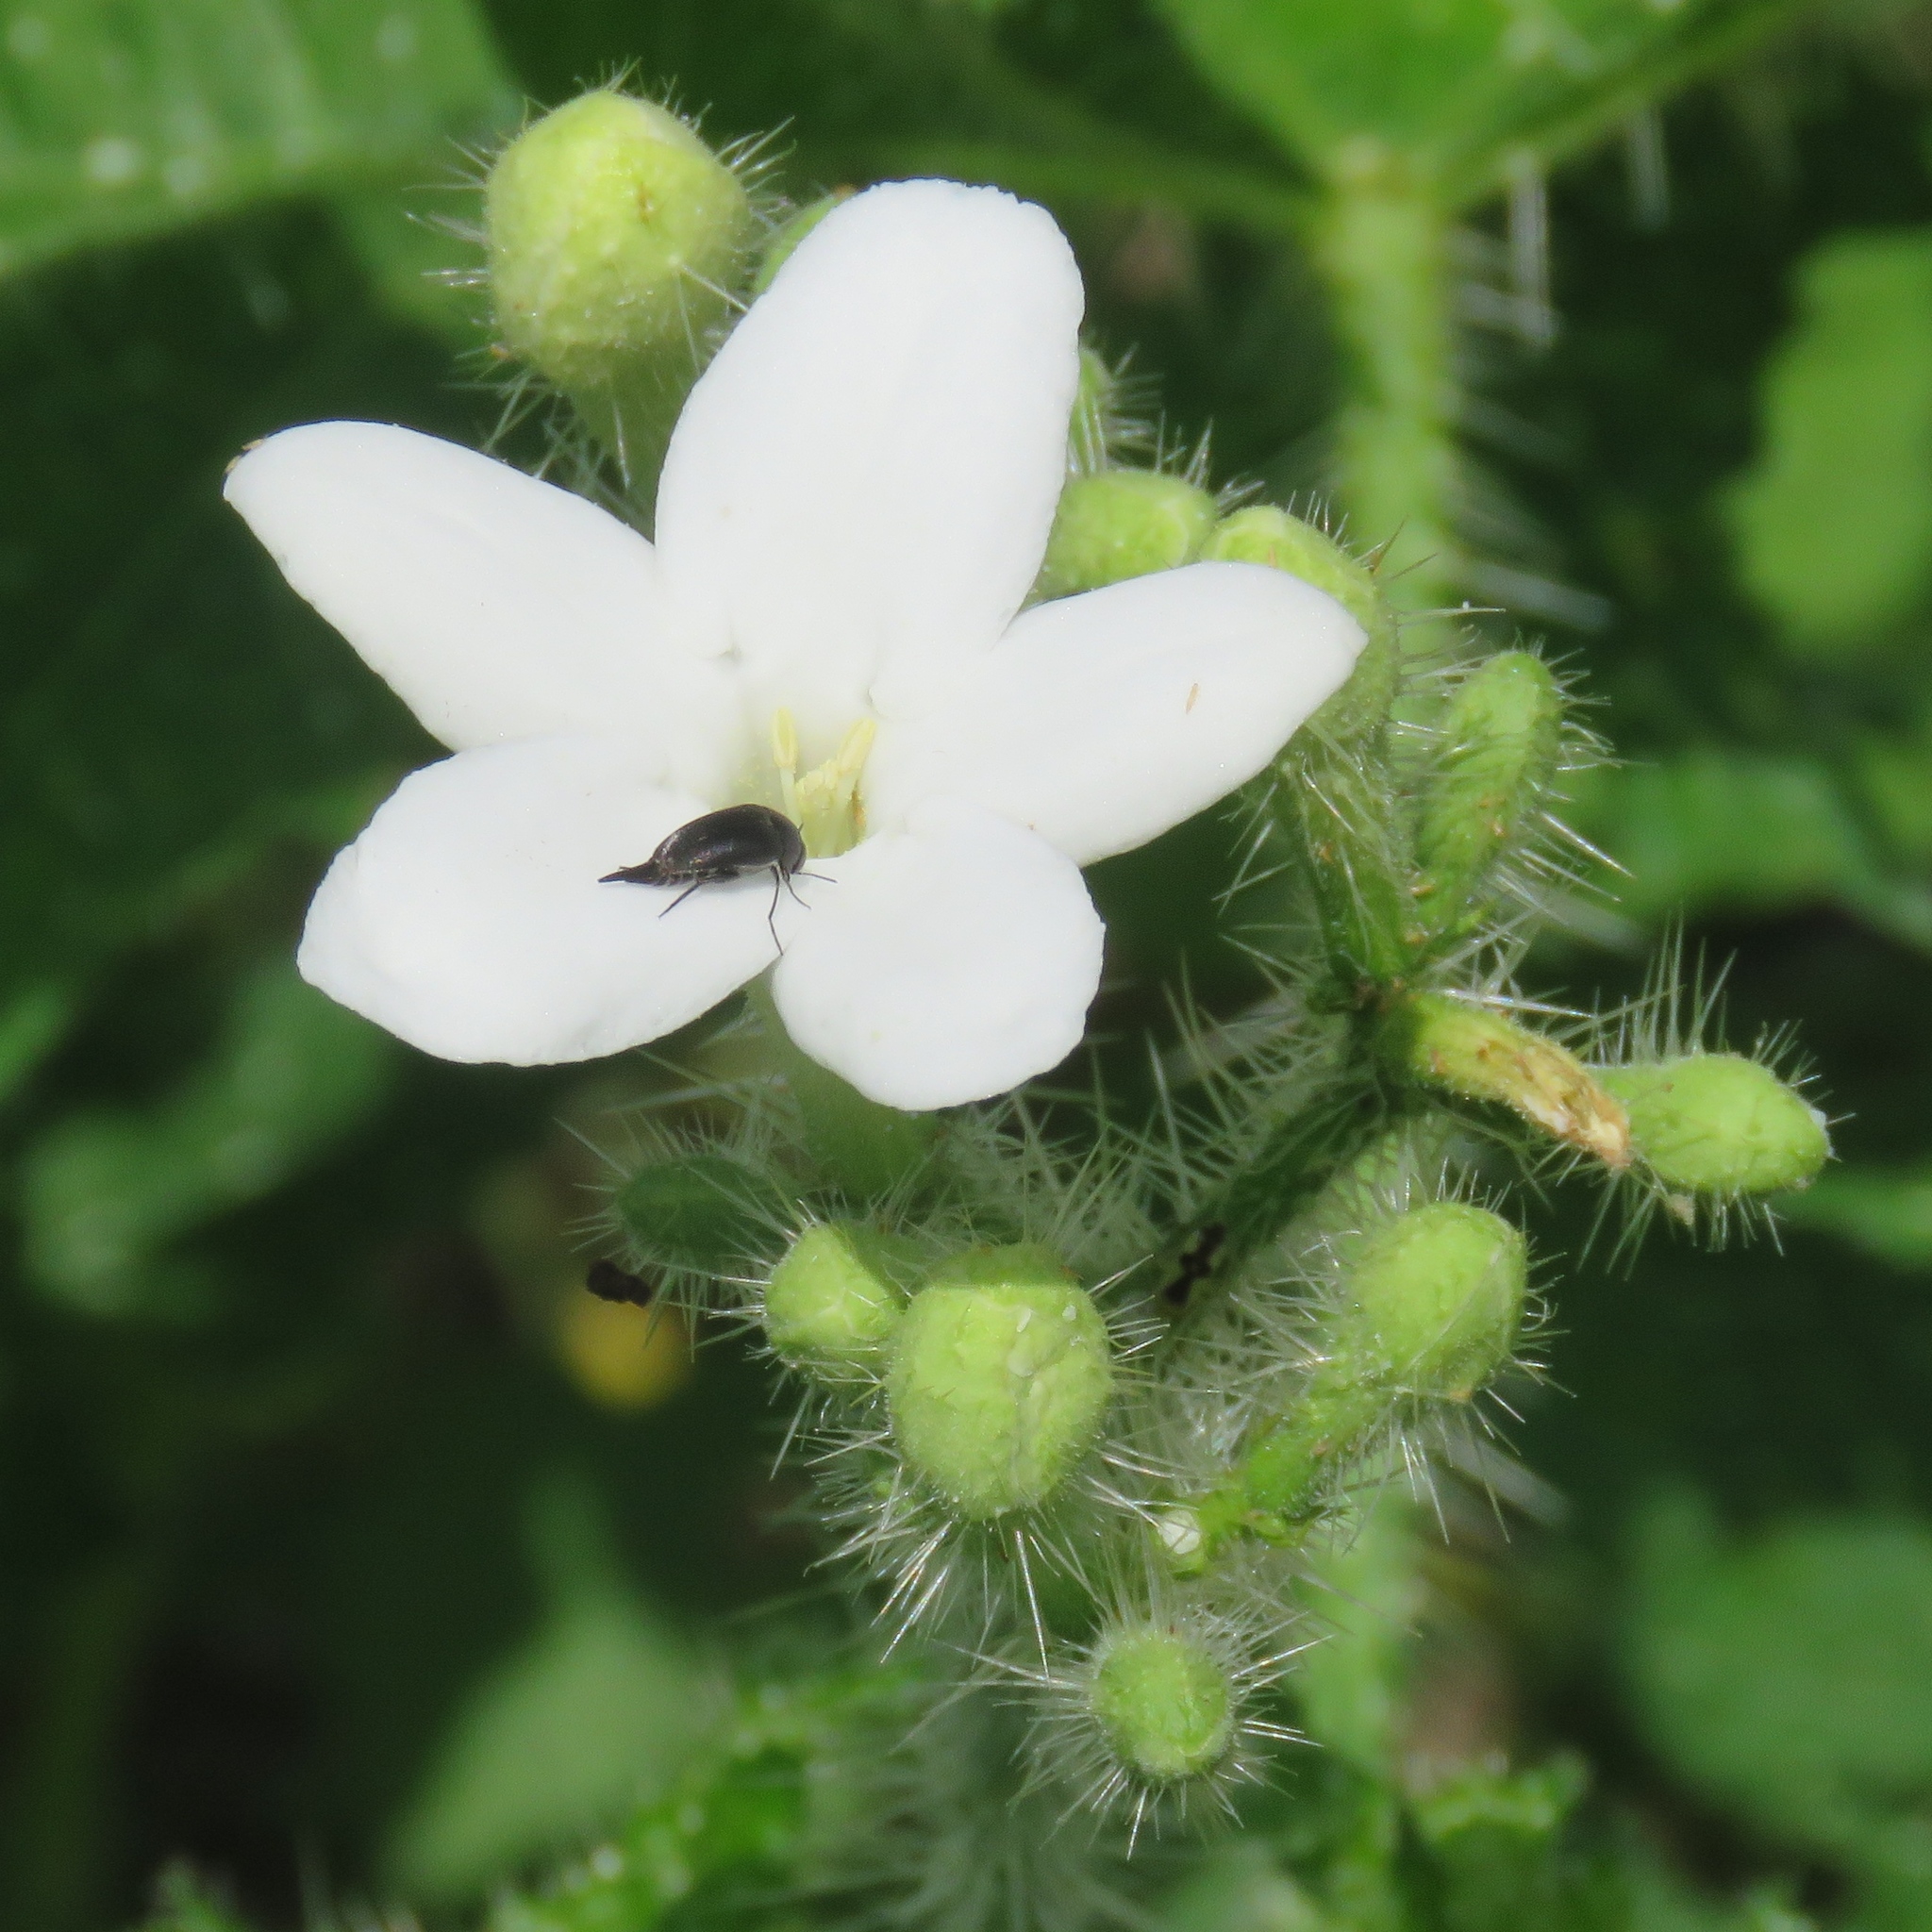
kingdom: Plantae
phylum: Tracheophyta
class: Magnoliopsida
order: Malpighiales
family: Euphorbiaceae
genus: Cnidoscolus
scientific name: Cnidoscolus texanus
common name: Texas bull-nettle
